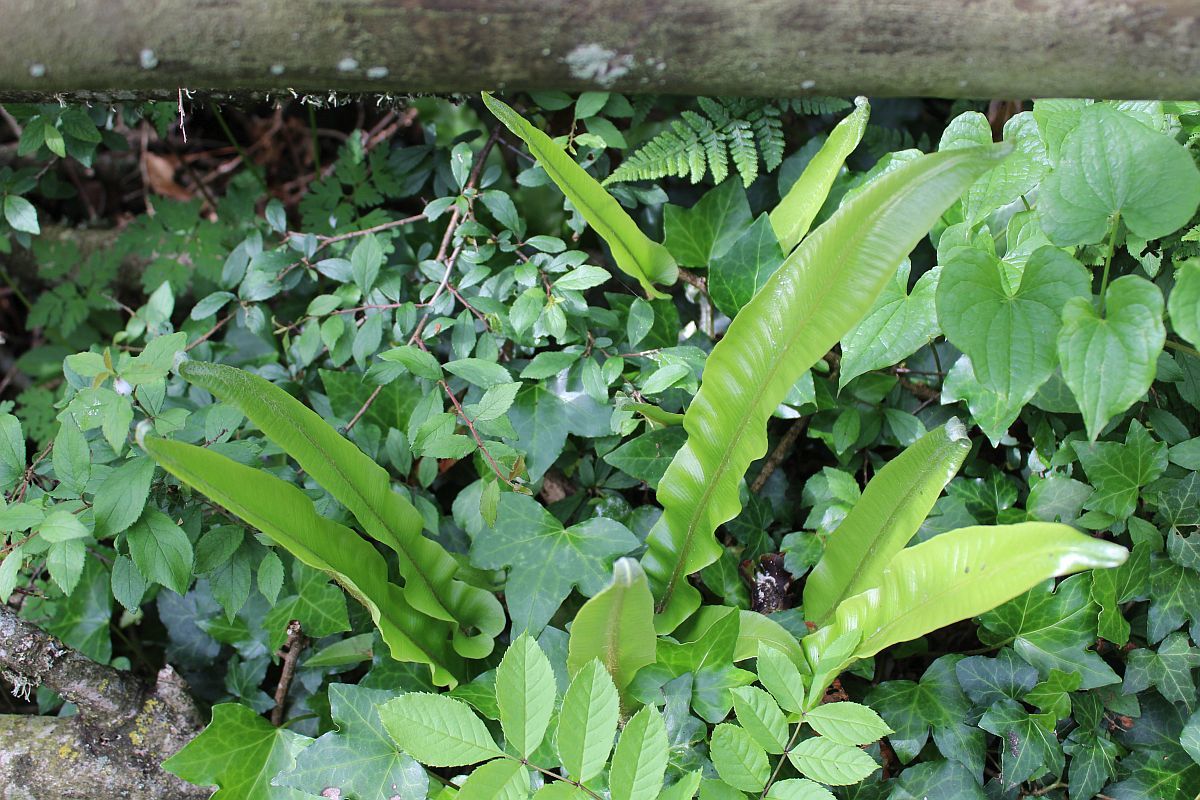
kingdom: Plantae
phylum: Tracheophyta
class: Polypodiopsida
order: Polypodiales
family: Aspleniaceae
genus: Asplenium
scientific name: Asplenium scolopendrium
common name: Hart's-tongue fern
